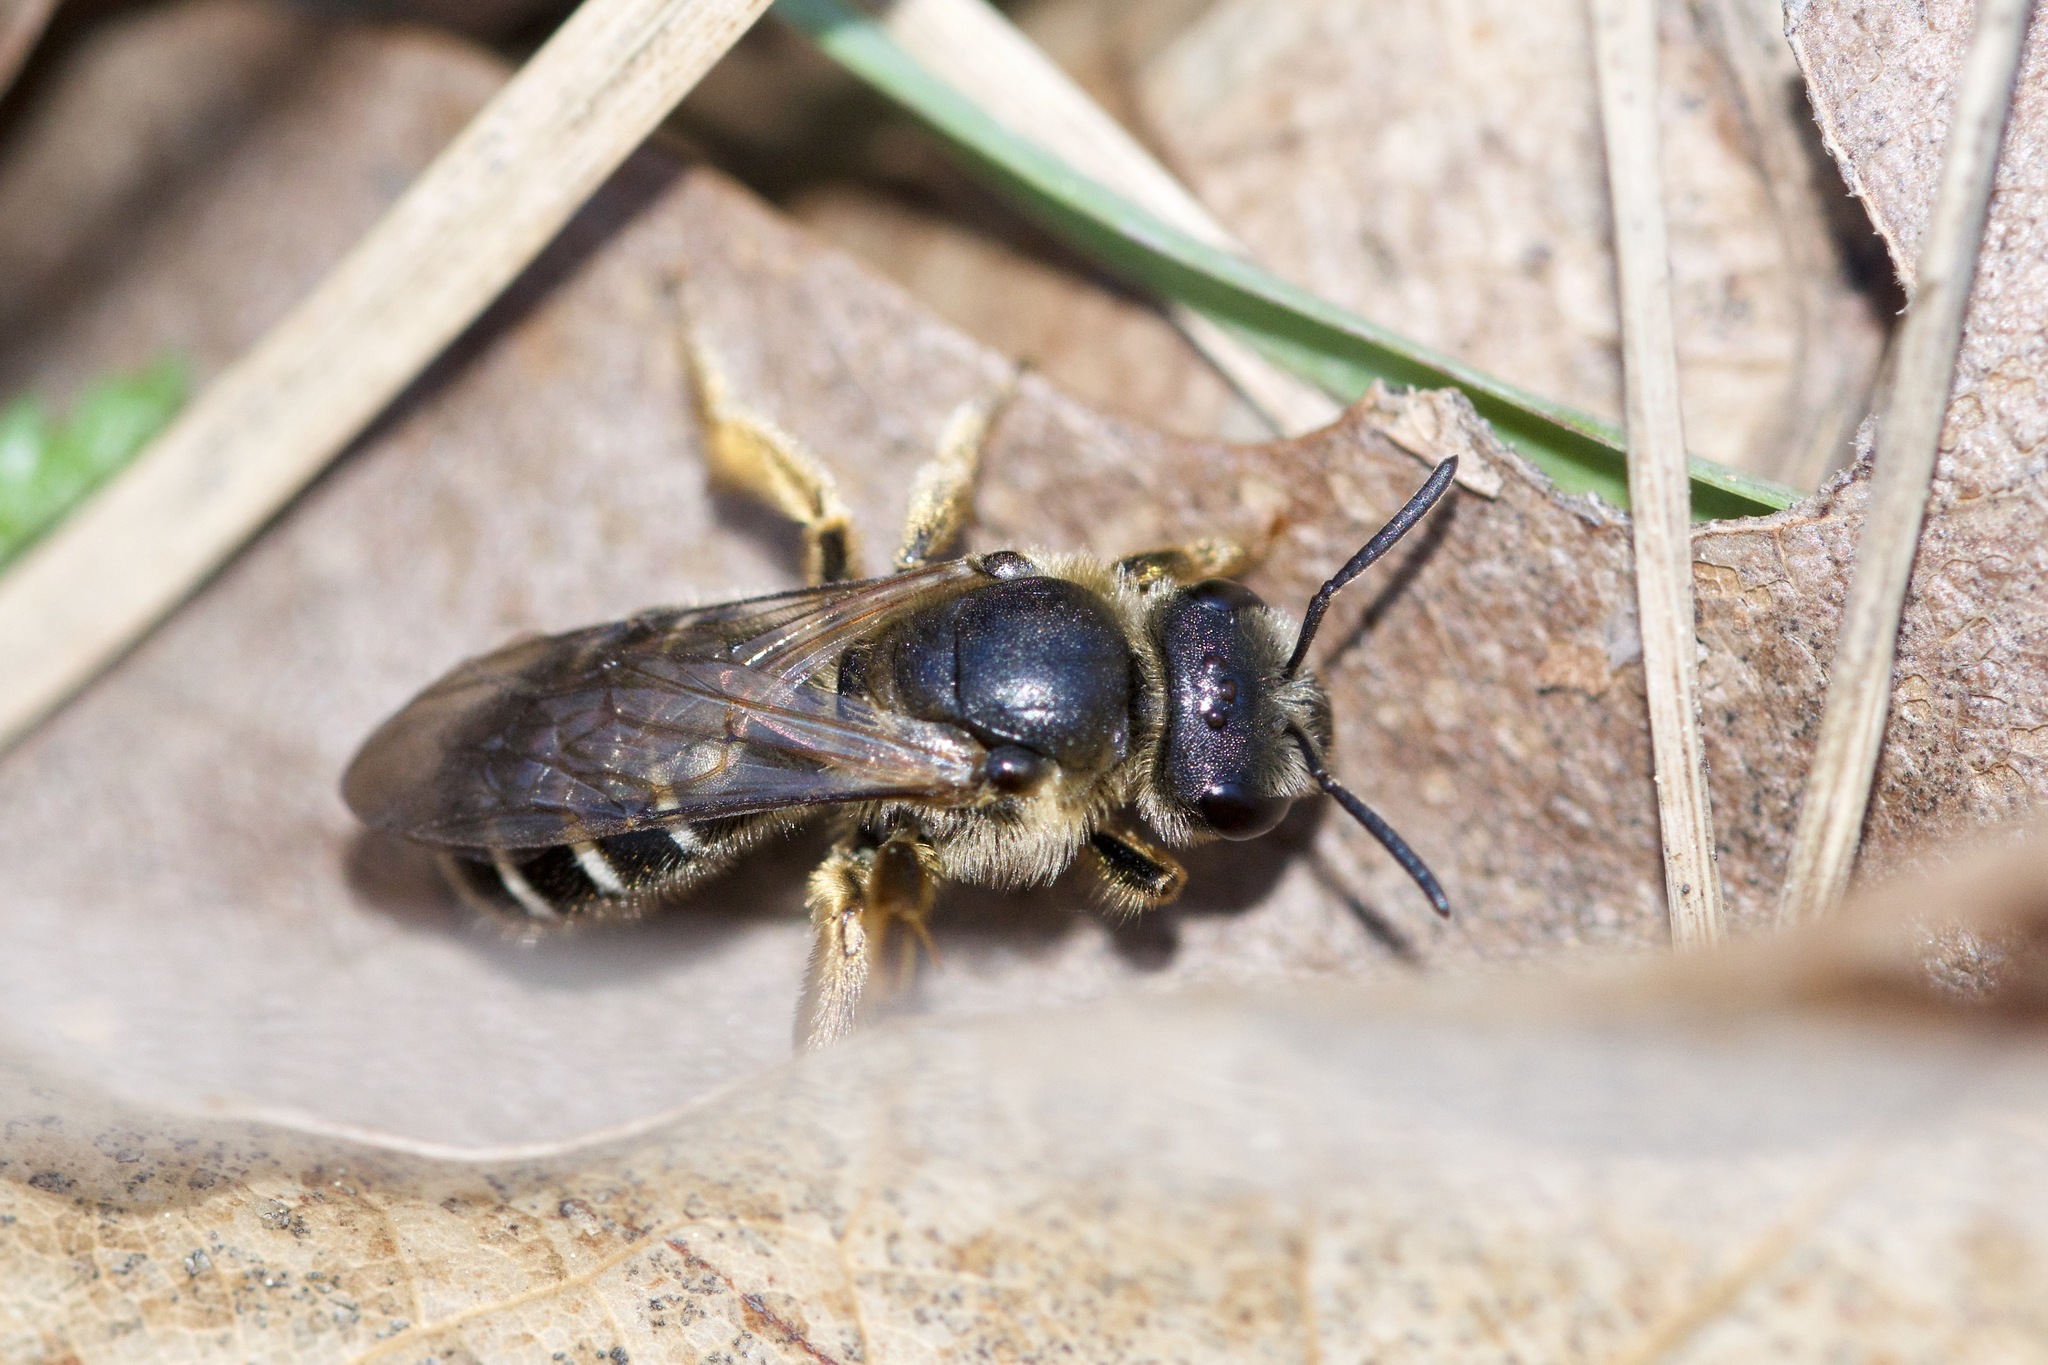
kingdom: Animalia
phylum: Arthropoda
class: Insecta
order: Hymenoptera
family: Halictidae
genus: Halictus
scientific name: Halictus rubicundus
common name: Orange-legged furrow bee
